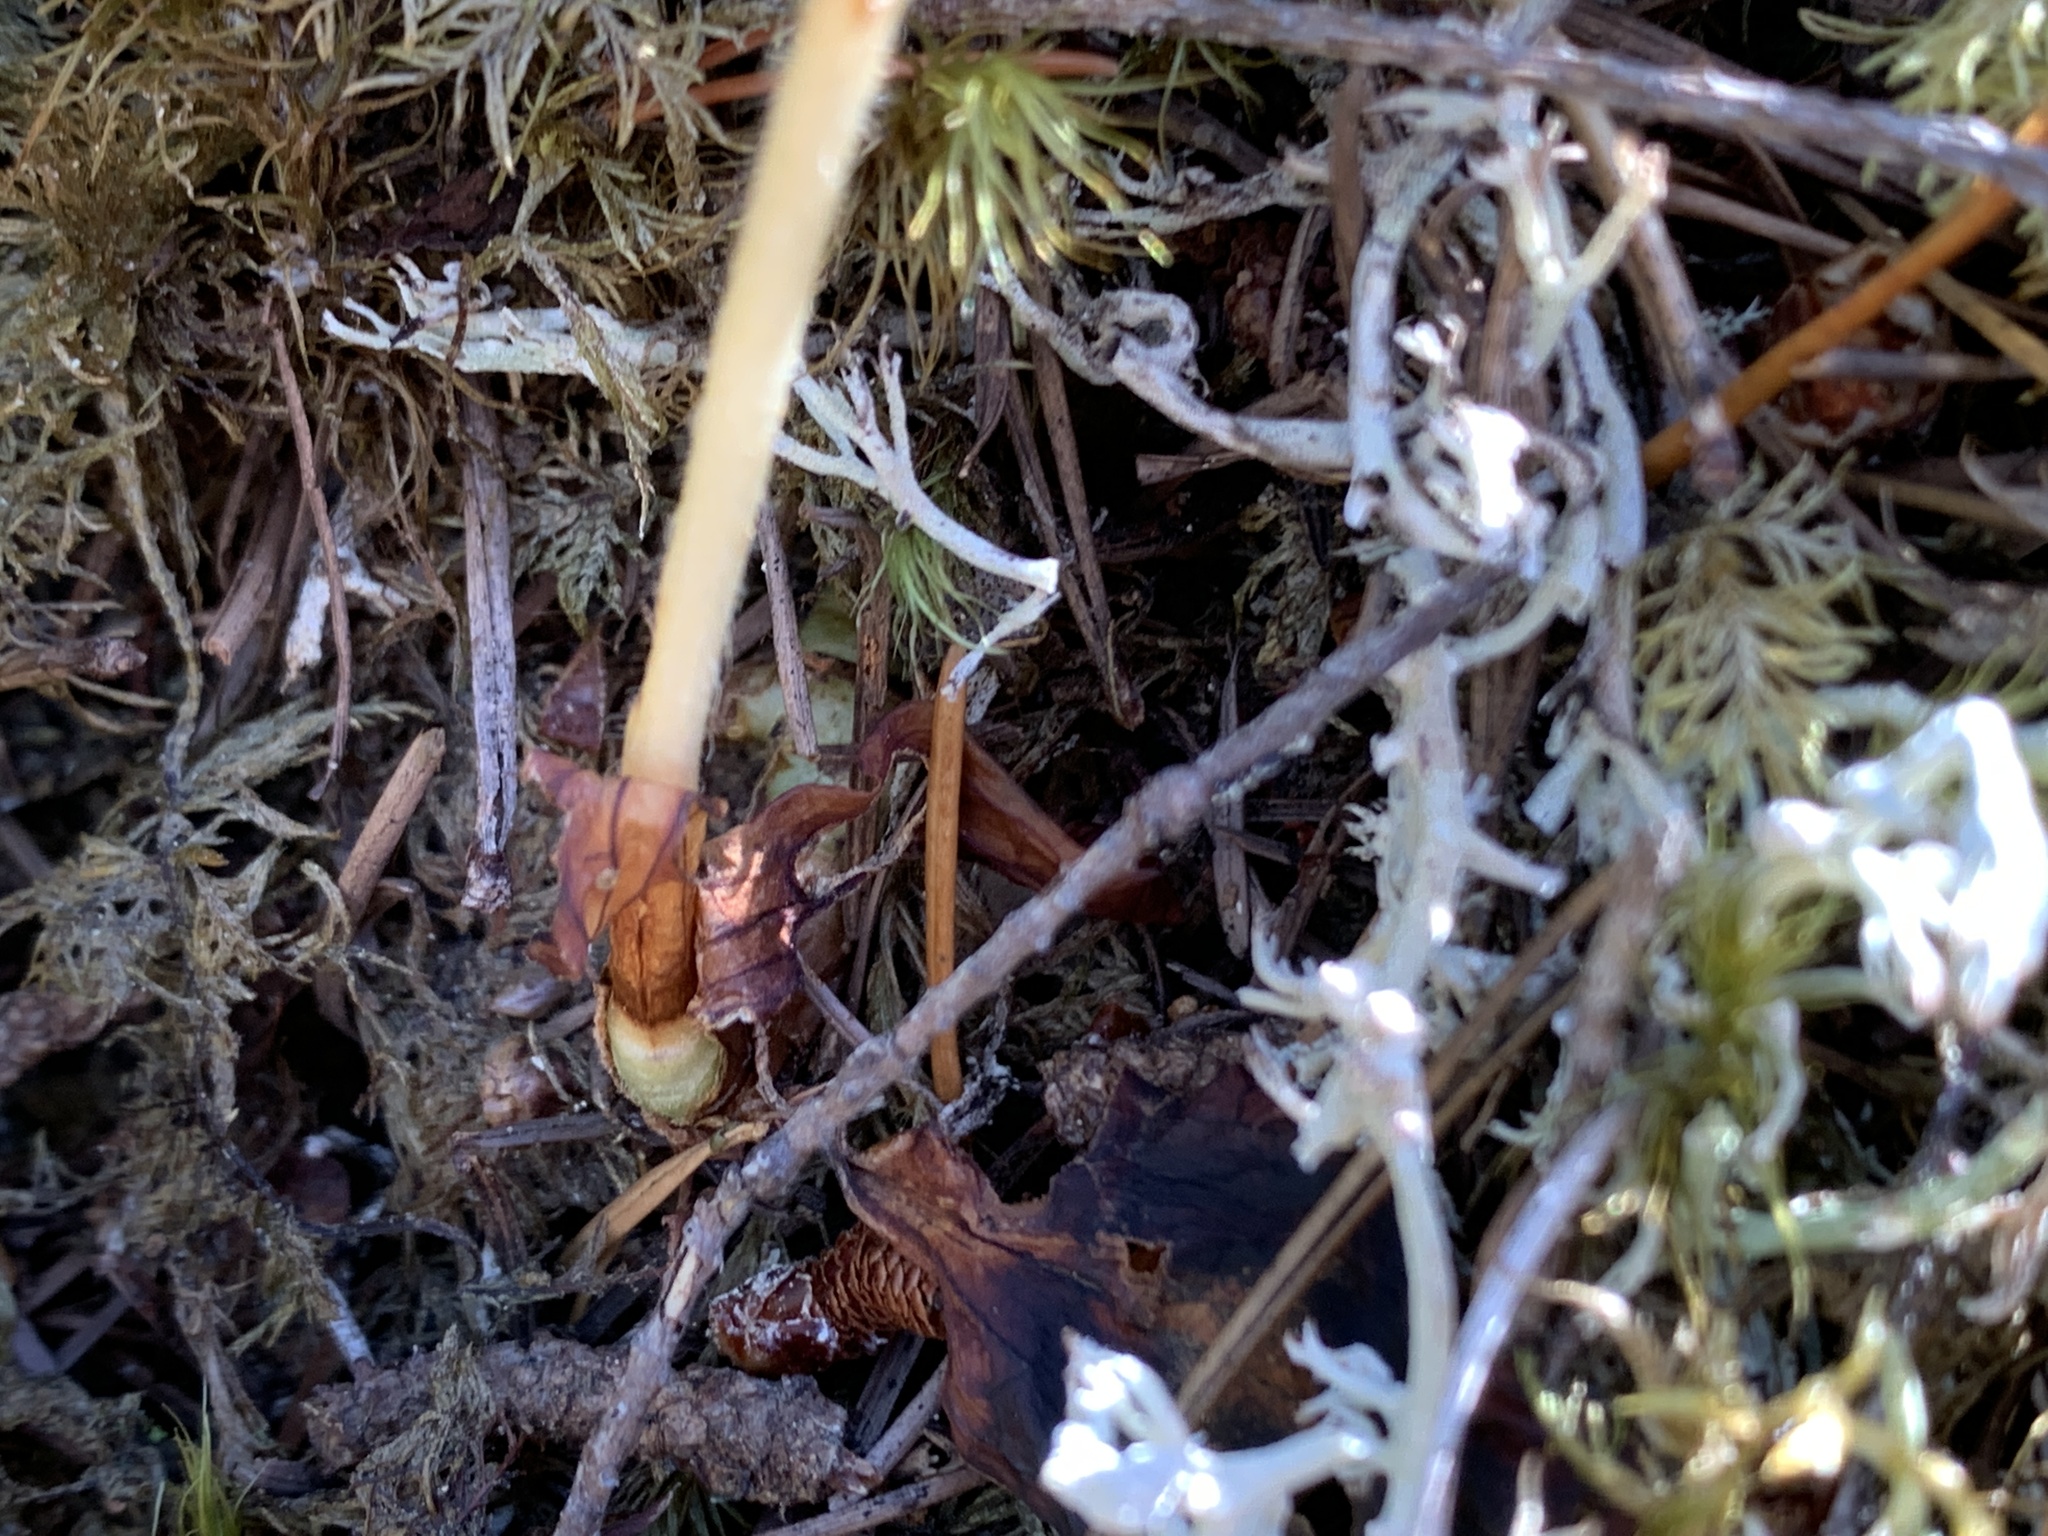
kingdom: Plantae
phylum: Tracheophyta
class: Liliopsida
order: Asparagales
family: Orchidaceae
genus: Goodyera
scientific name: Goodyera oblongifolia
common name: Giant rattlesnake-plantain
